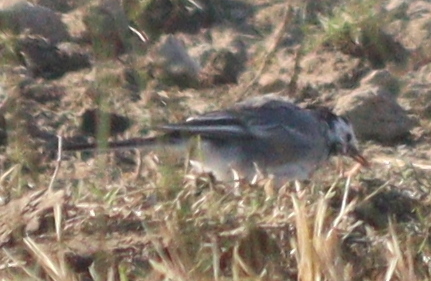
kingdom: Animalia
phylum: Chordata
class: Aves
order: Passeriformes
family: Motacillidae
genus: Motacilla
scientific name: Motacilla alba
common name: White wagtail
